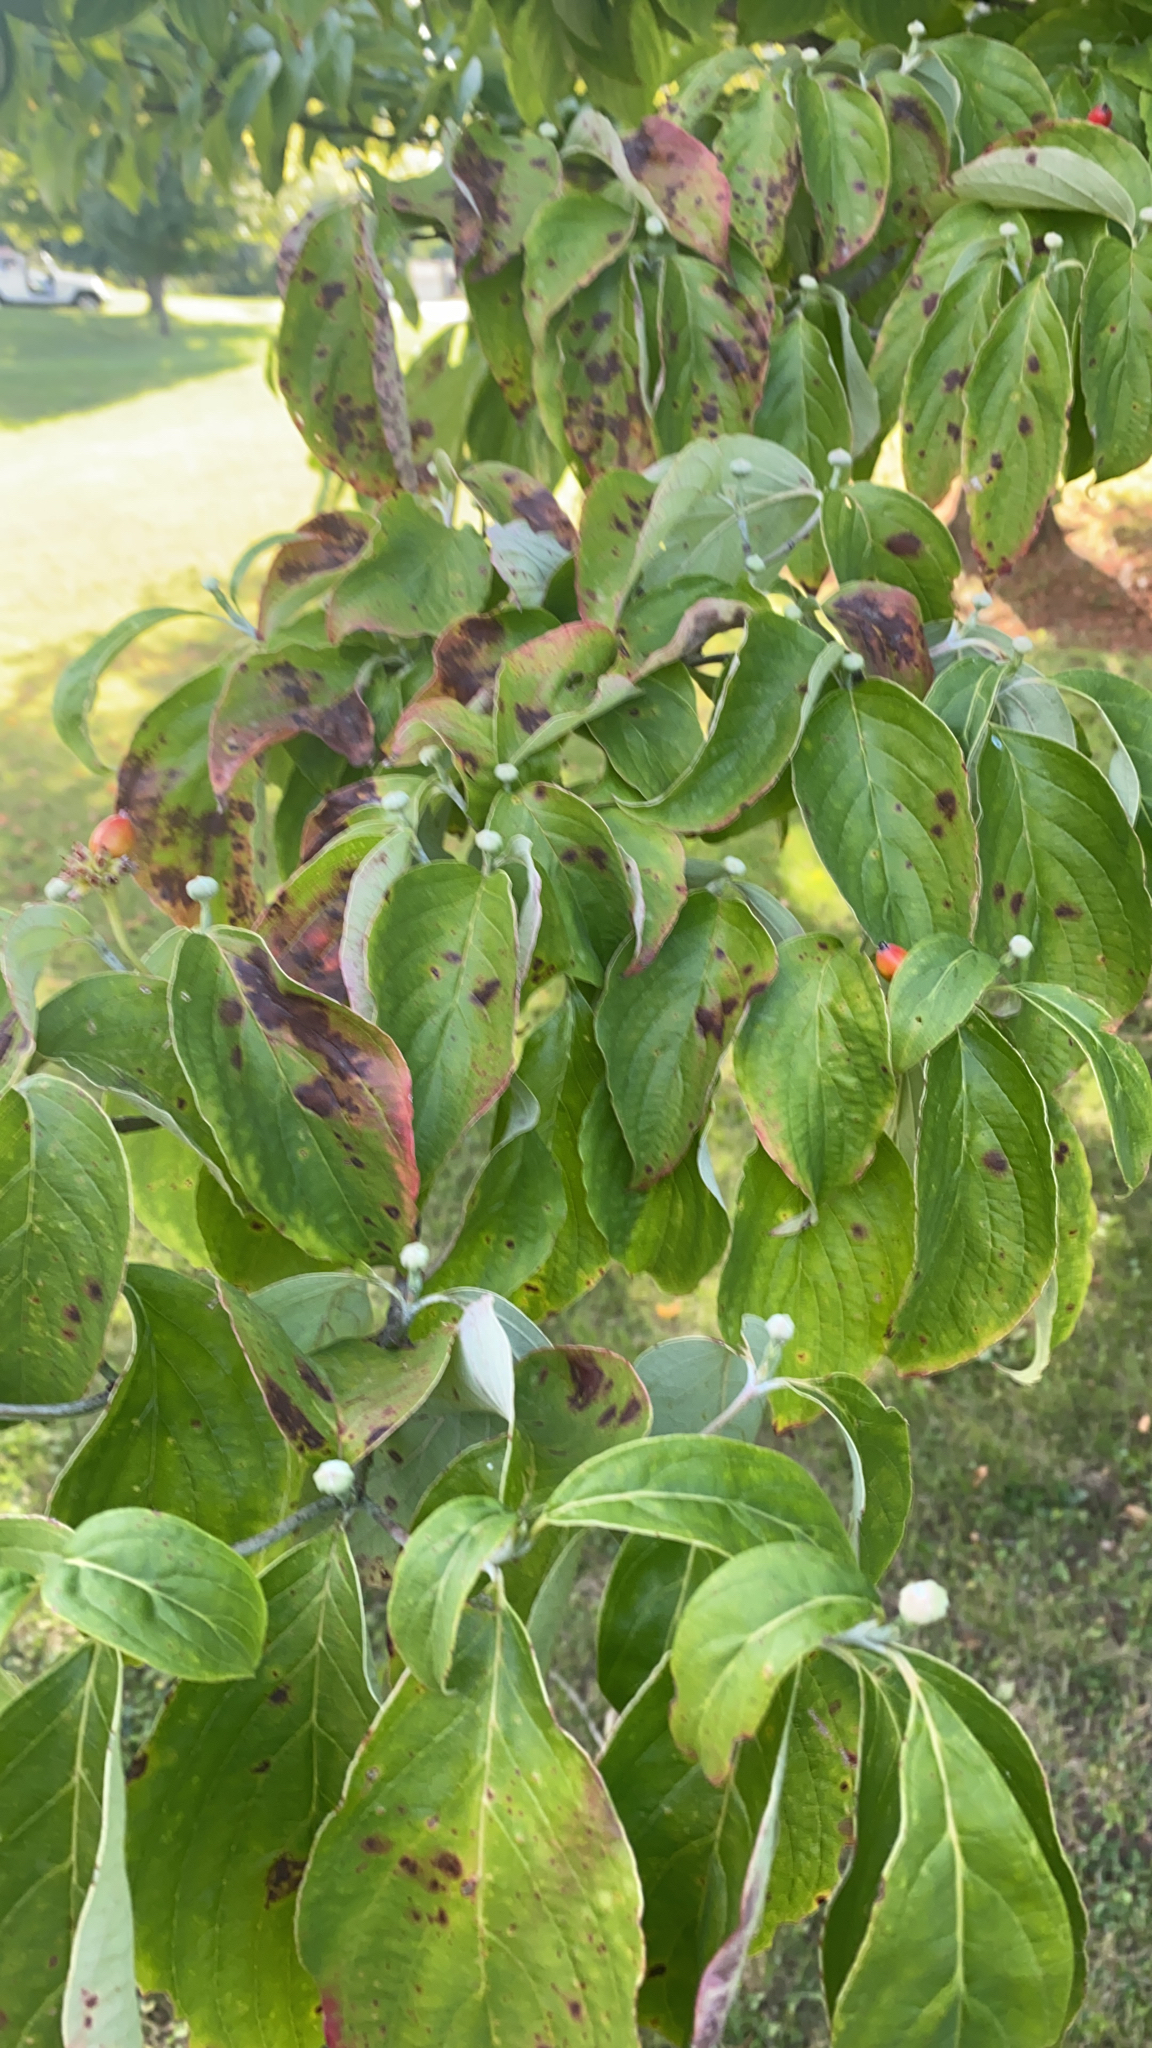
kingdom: Plantae
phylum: Tracheophyta
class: Magnoliopsida
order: Cornales
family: Cornaceae
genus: Cornus
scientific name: Cornus florida
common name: Flowering dogwood
